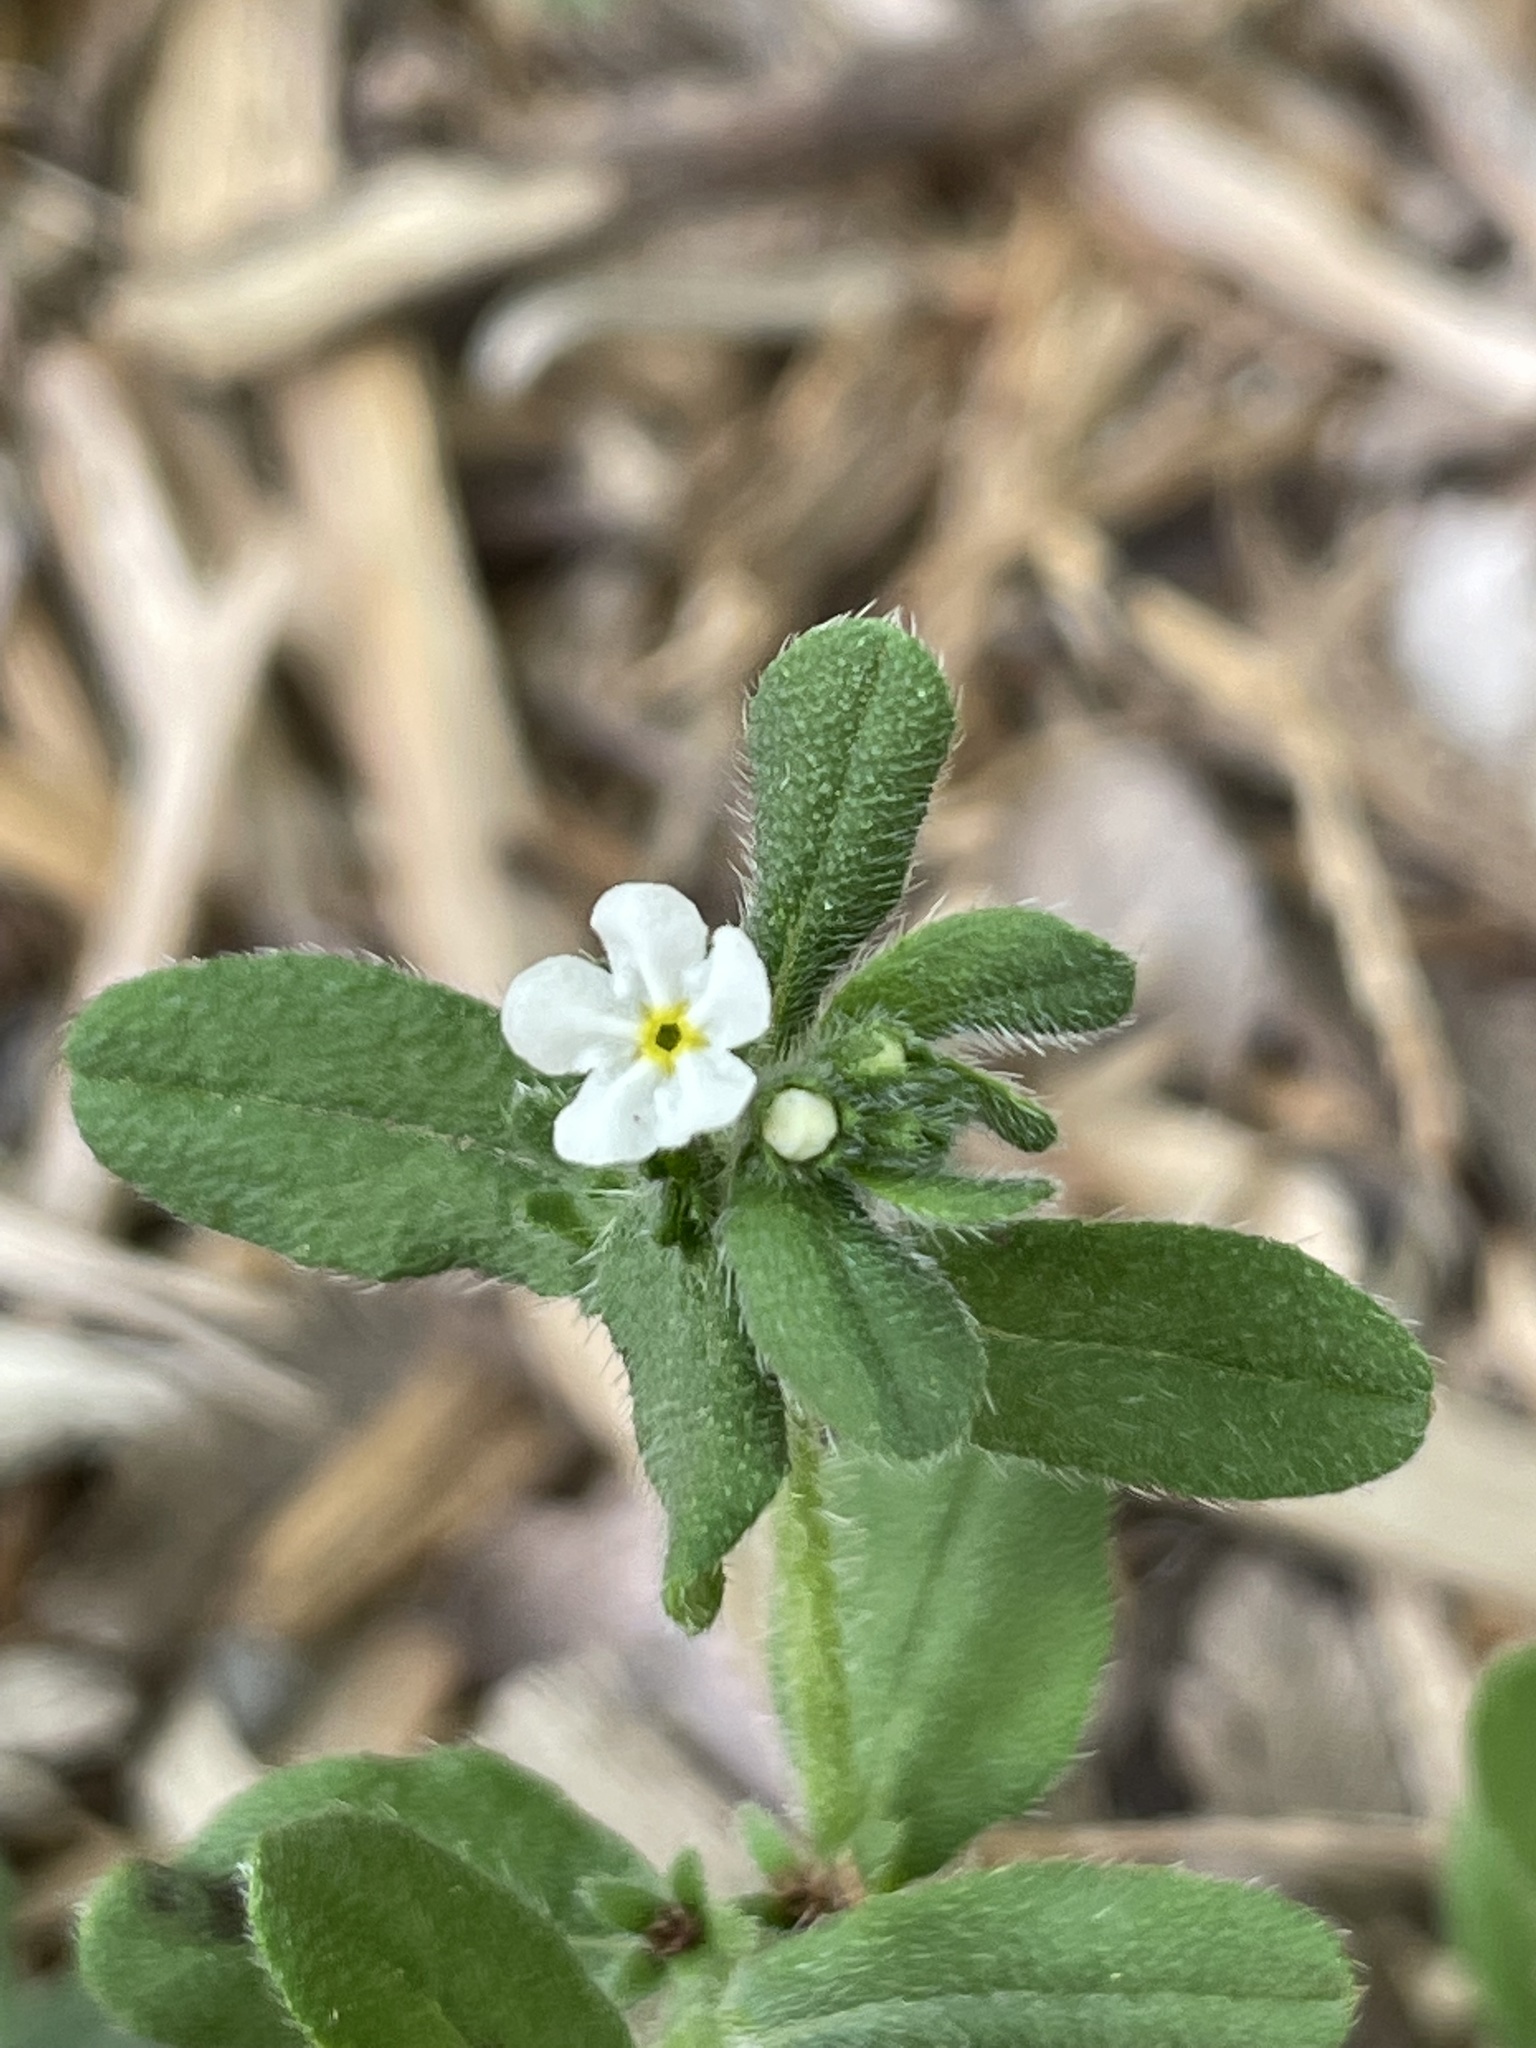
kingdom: Plantae
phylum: Tracheophyta
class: Magnoliopsida
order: Boraginales
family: Boraginaceae
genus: Lithospermum
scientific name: Lithospermum matamorense
